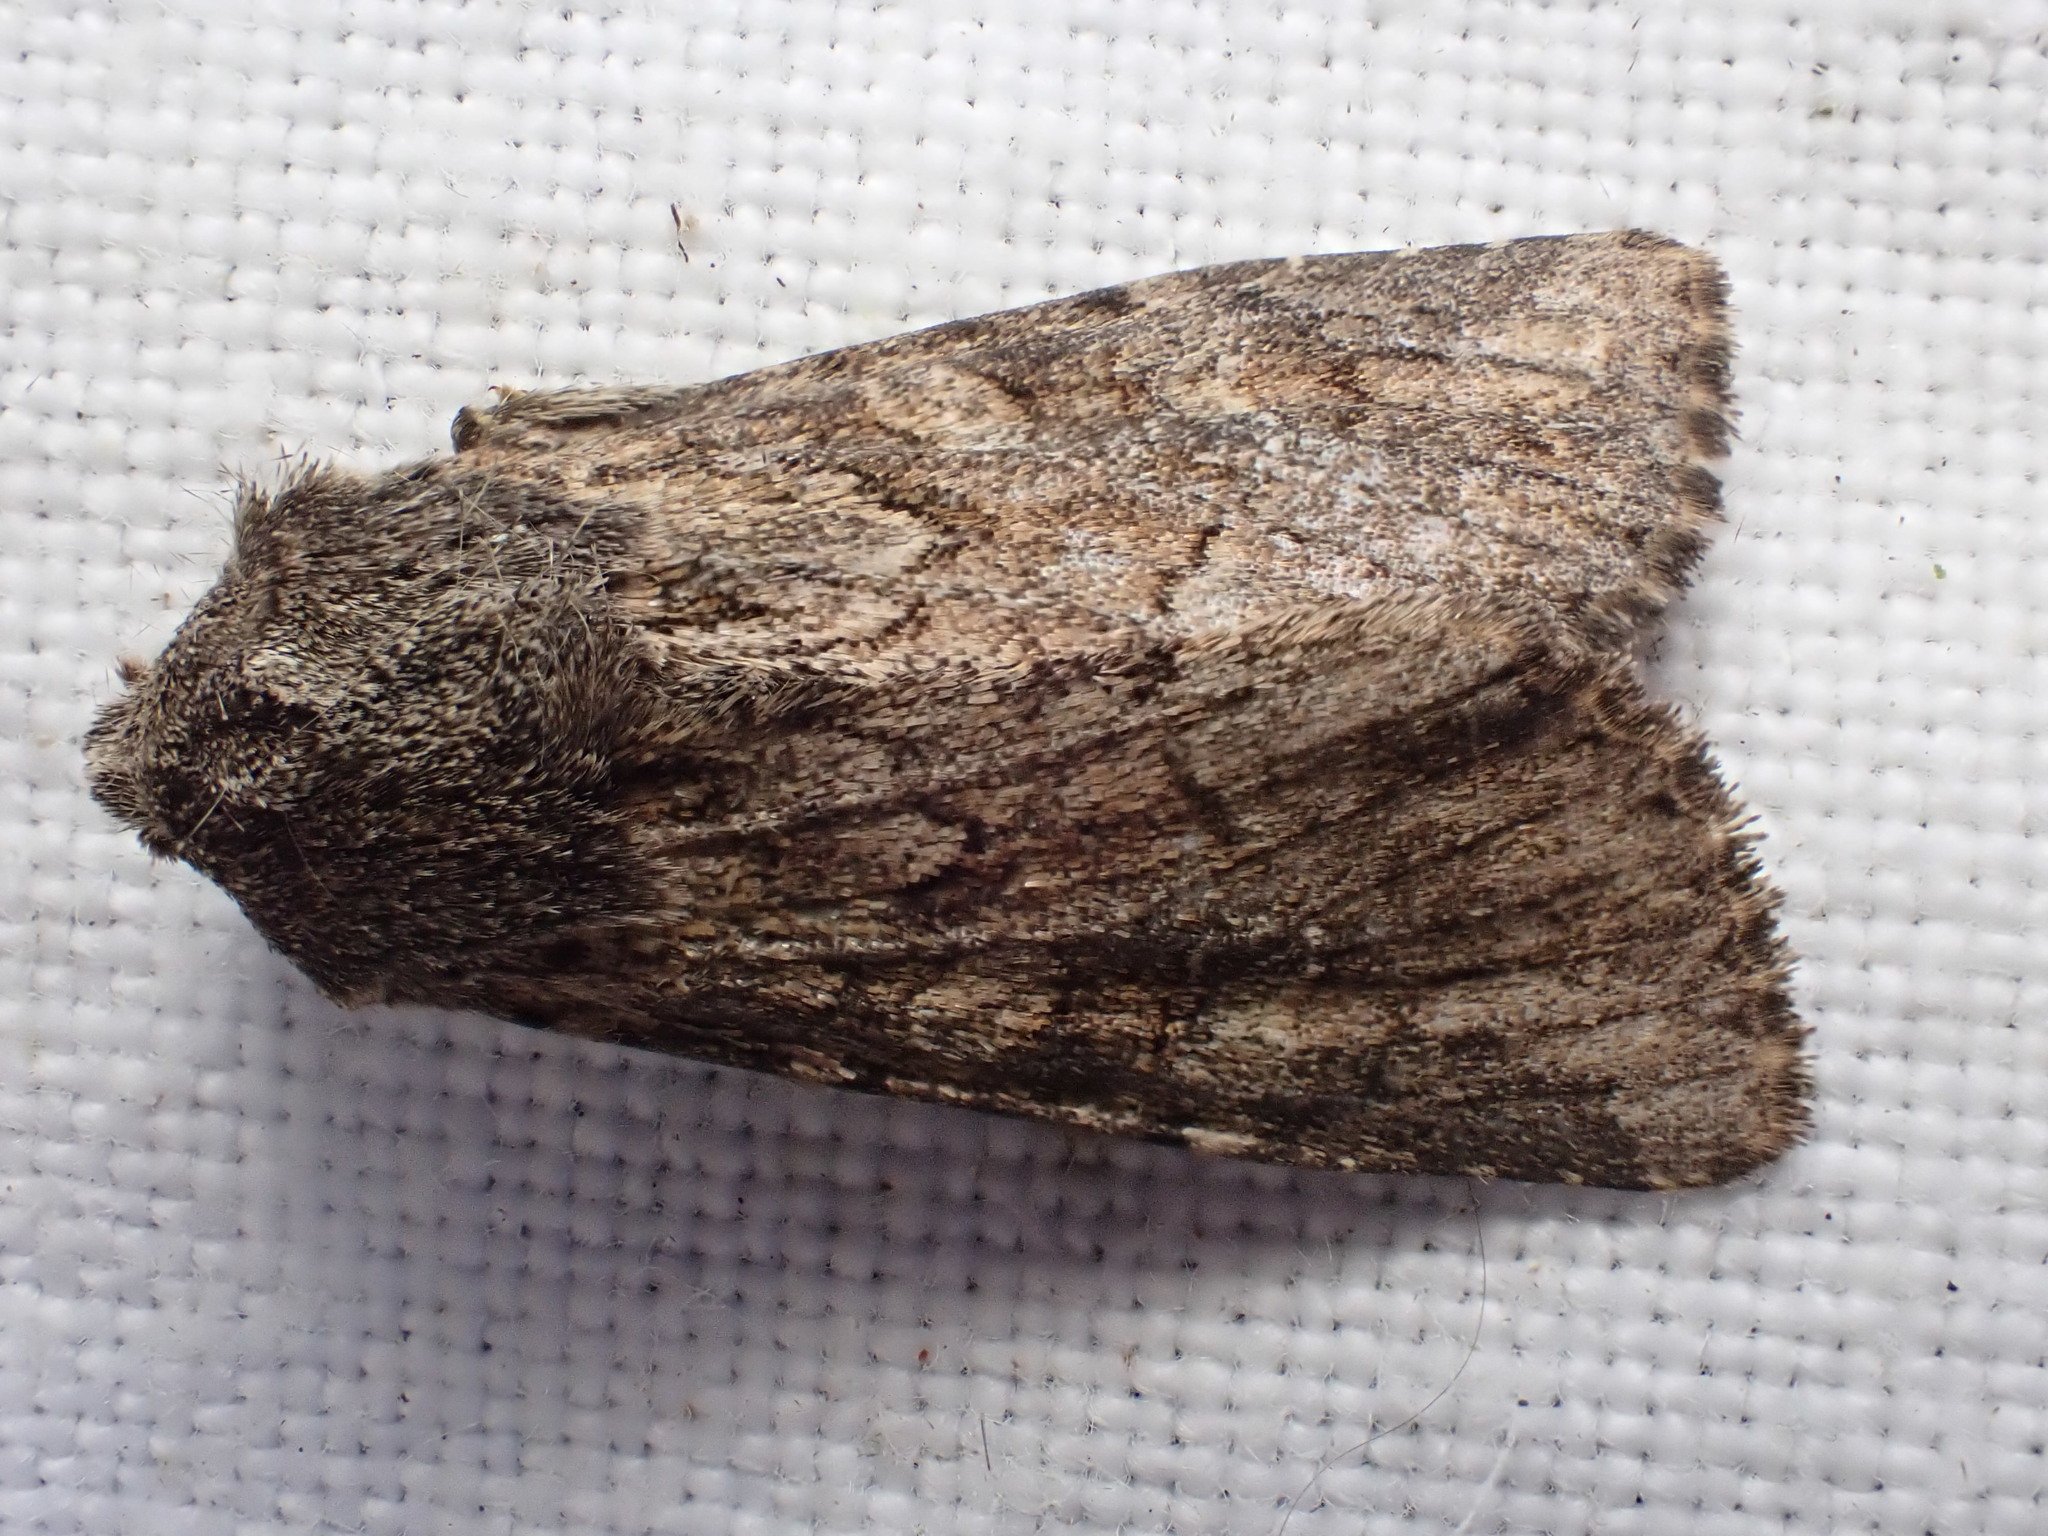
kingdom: Animalia
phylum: Arthropoda
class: Insecta
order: Lepidoptera
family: Noctuidae
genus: Apamea
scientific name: Apamea anceps
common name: Large nutmeg
